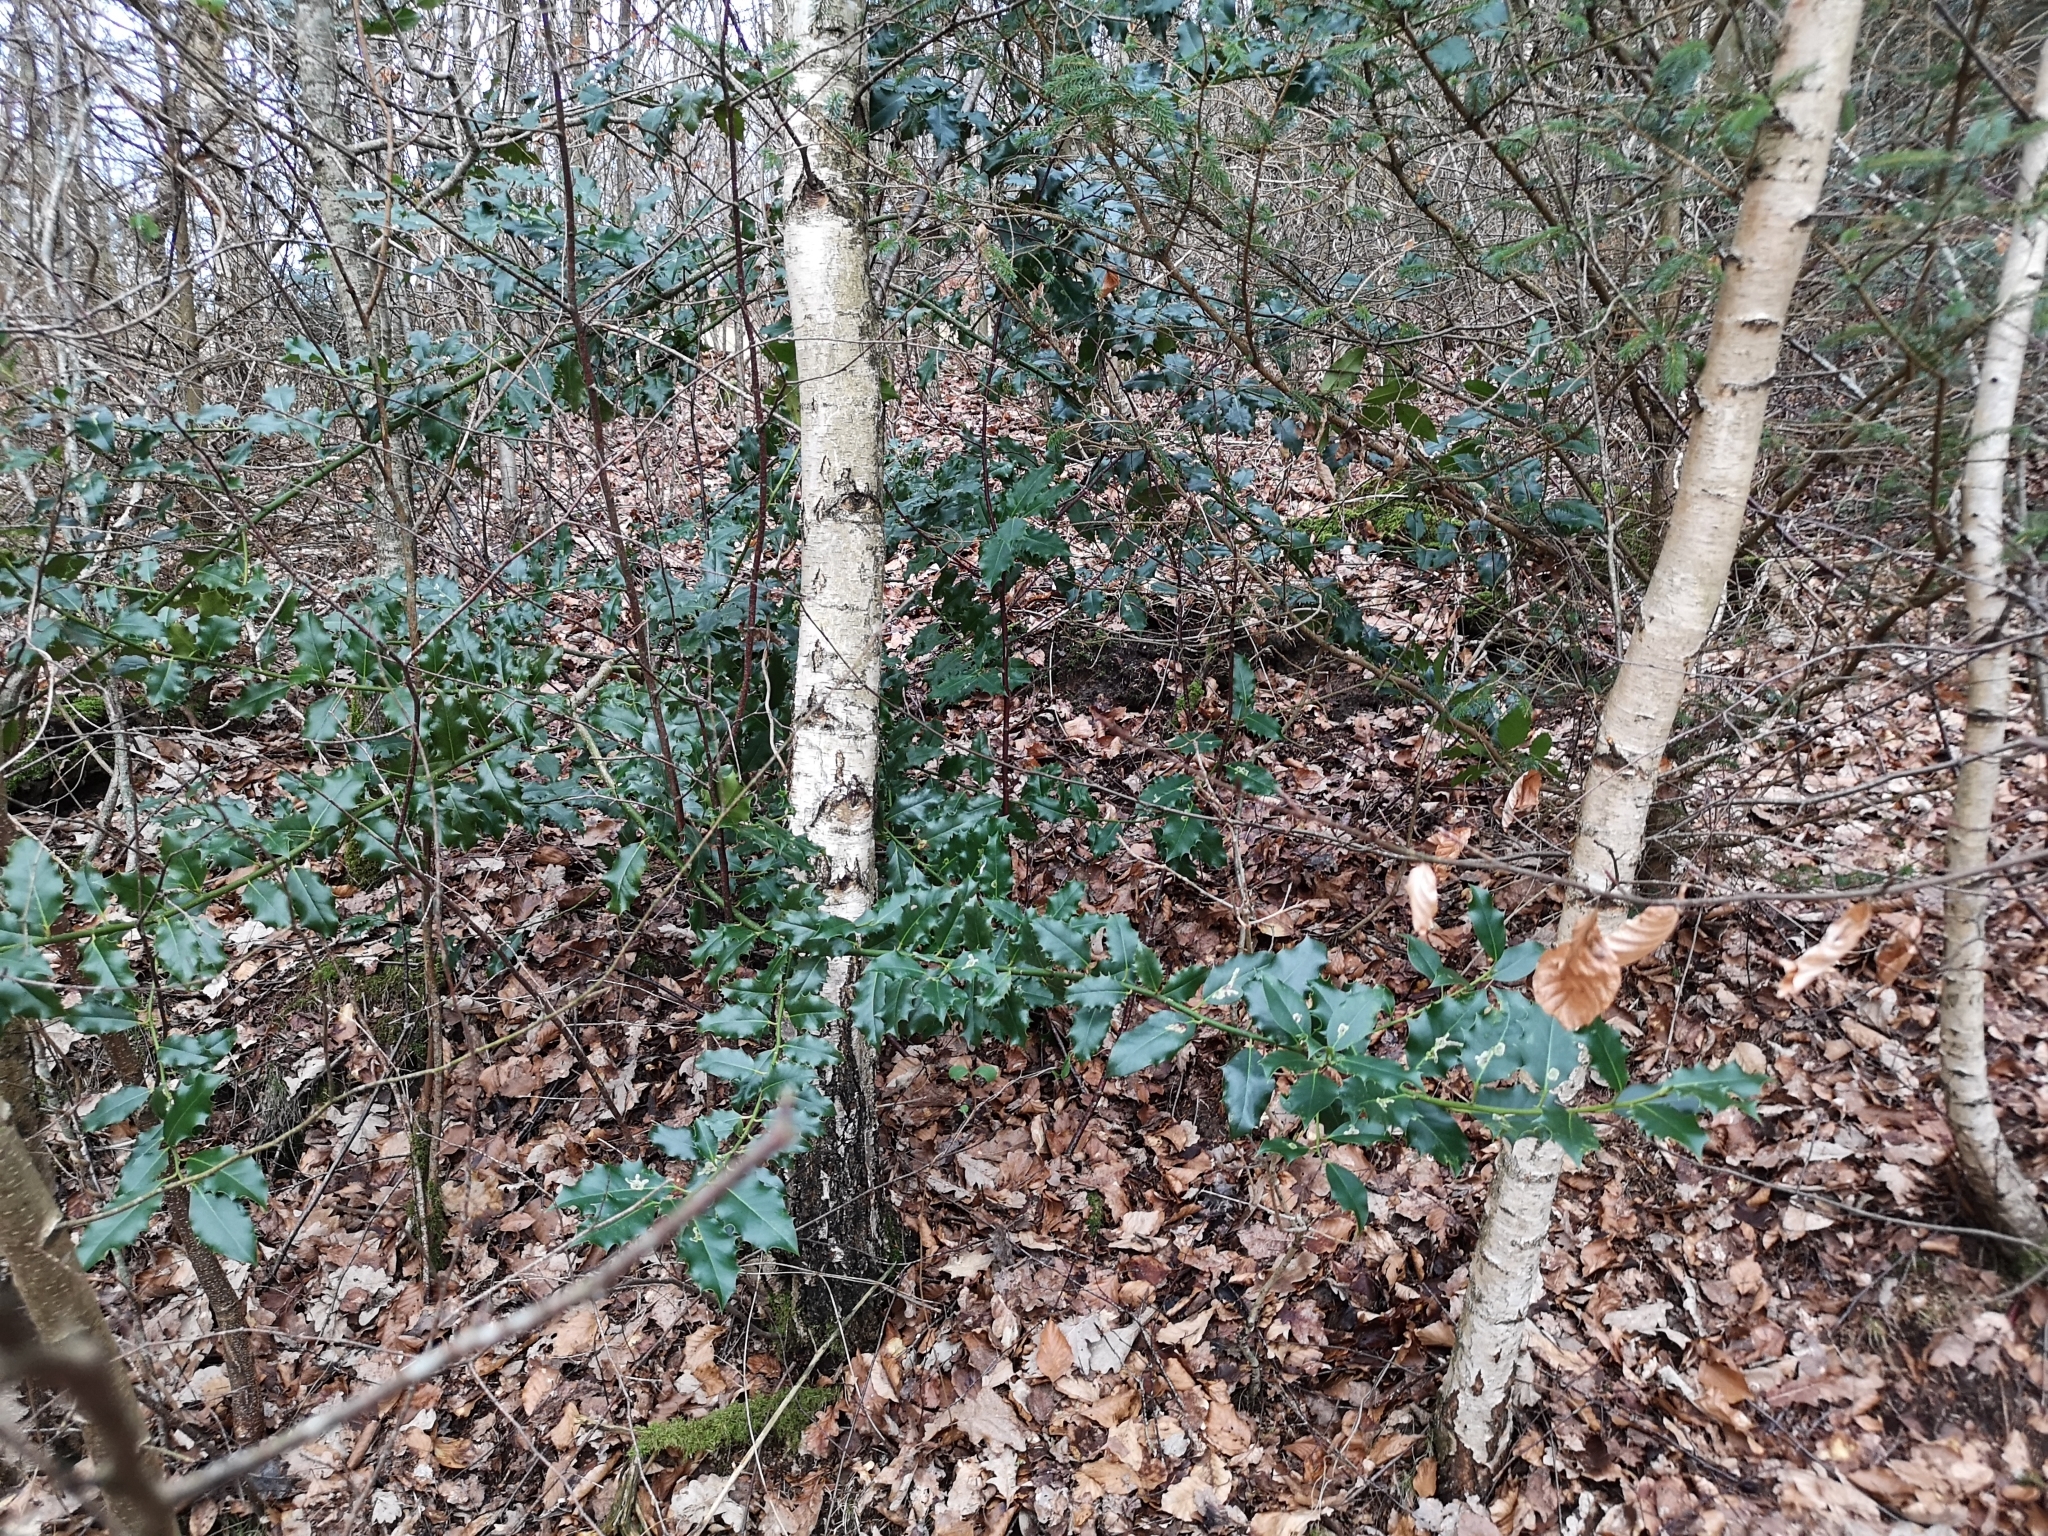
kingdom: Plantae
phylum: Tracheophyta
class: Magnoliopsida
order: Aquifoliales
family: Aquifoliaceae
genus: Ilex
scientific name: Ilex aquifolium
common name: English holly
